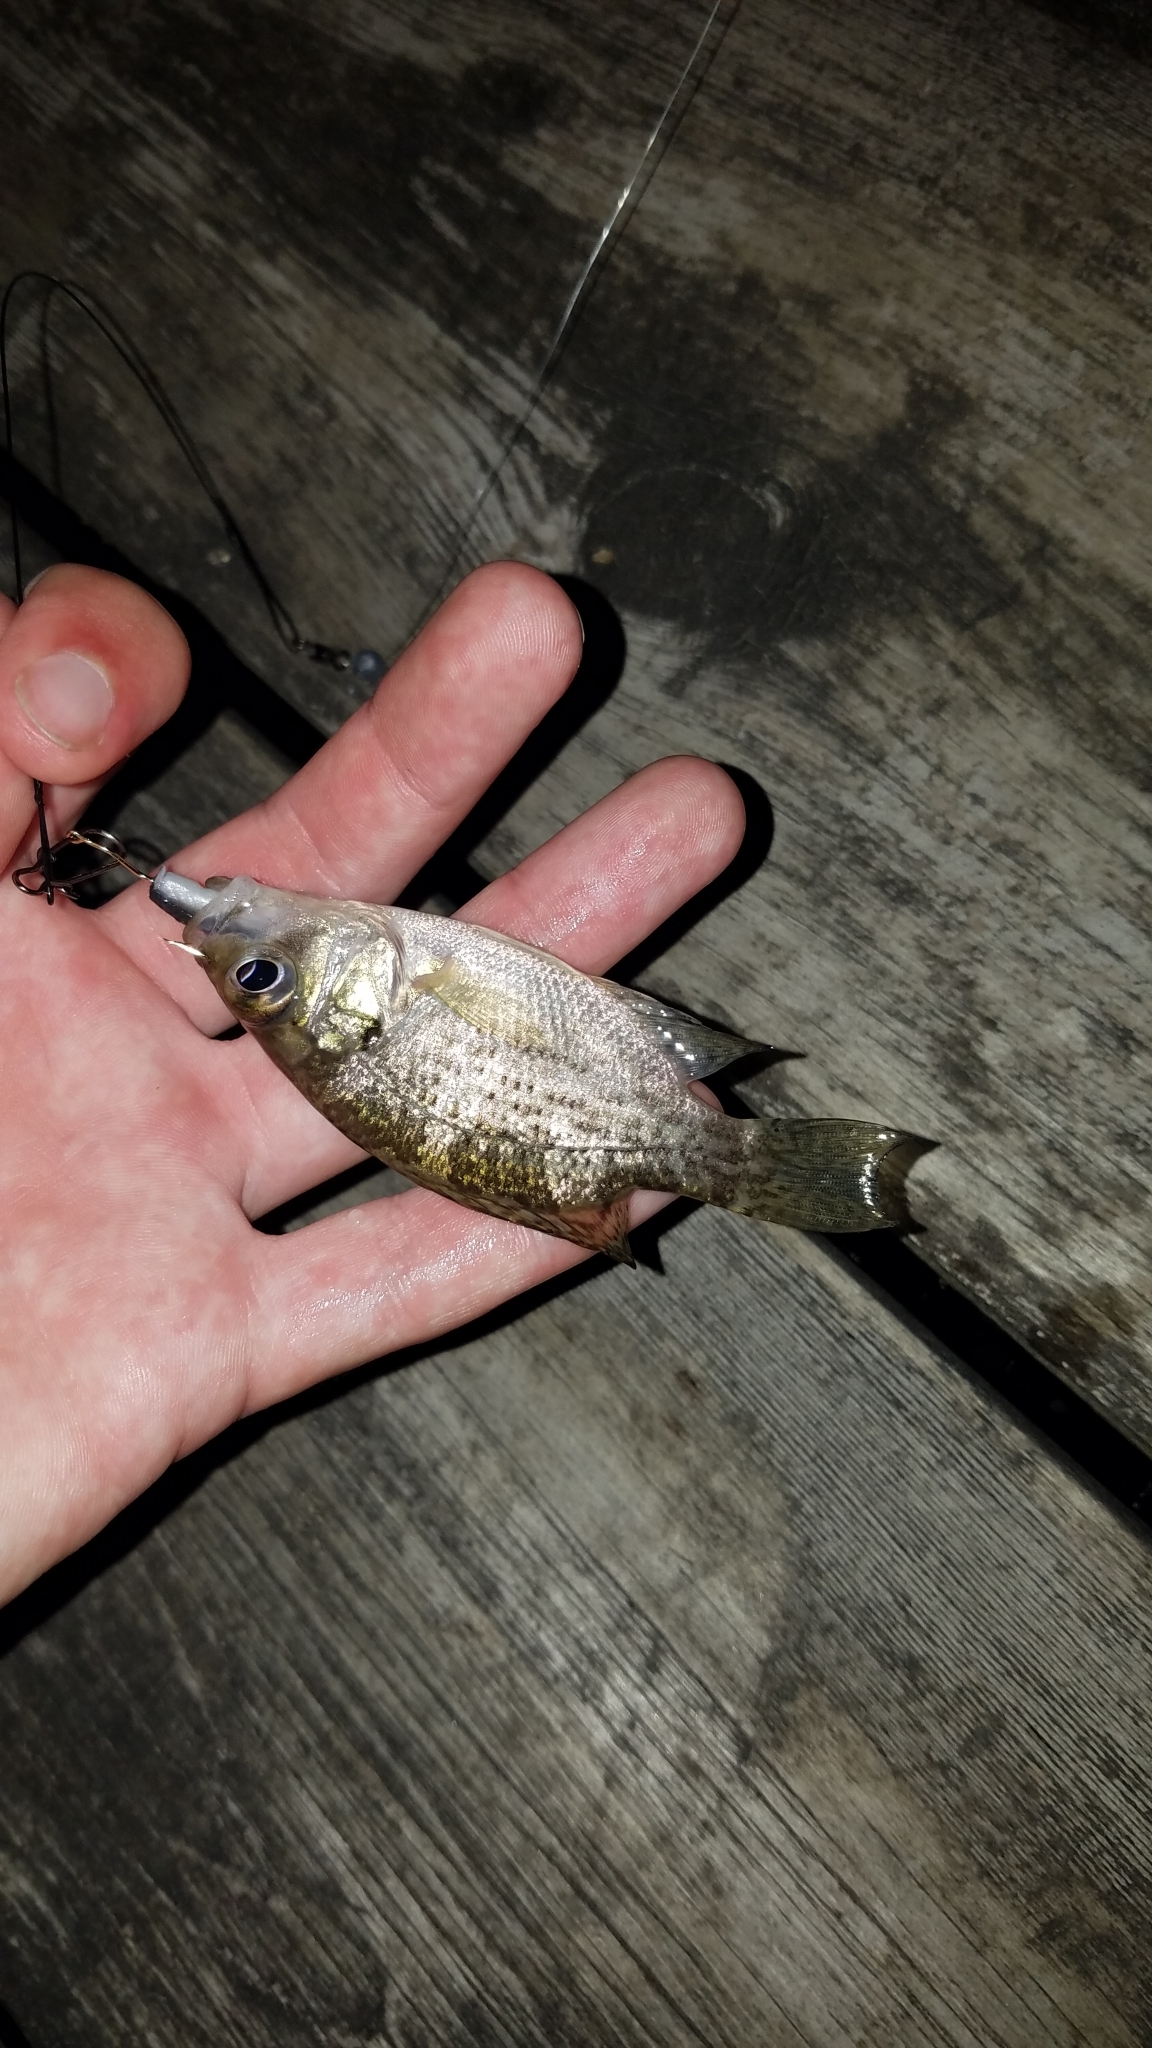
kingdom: Animalia
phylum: Chordata
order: Perciformes
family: Centrarchidae
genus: Ambloplites
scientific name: Ambloplites rupestris
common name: Rock bass
